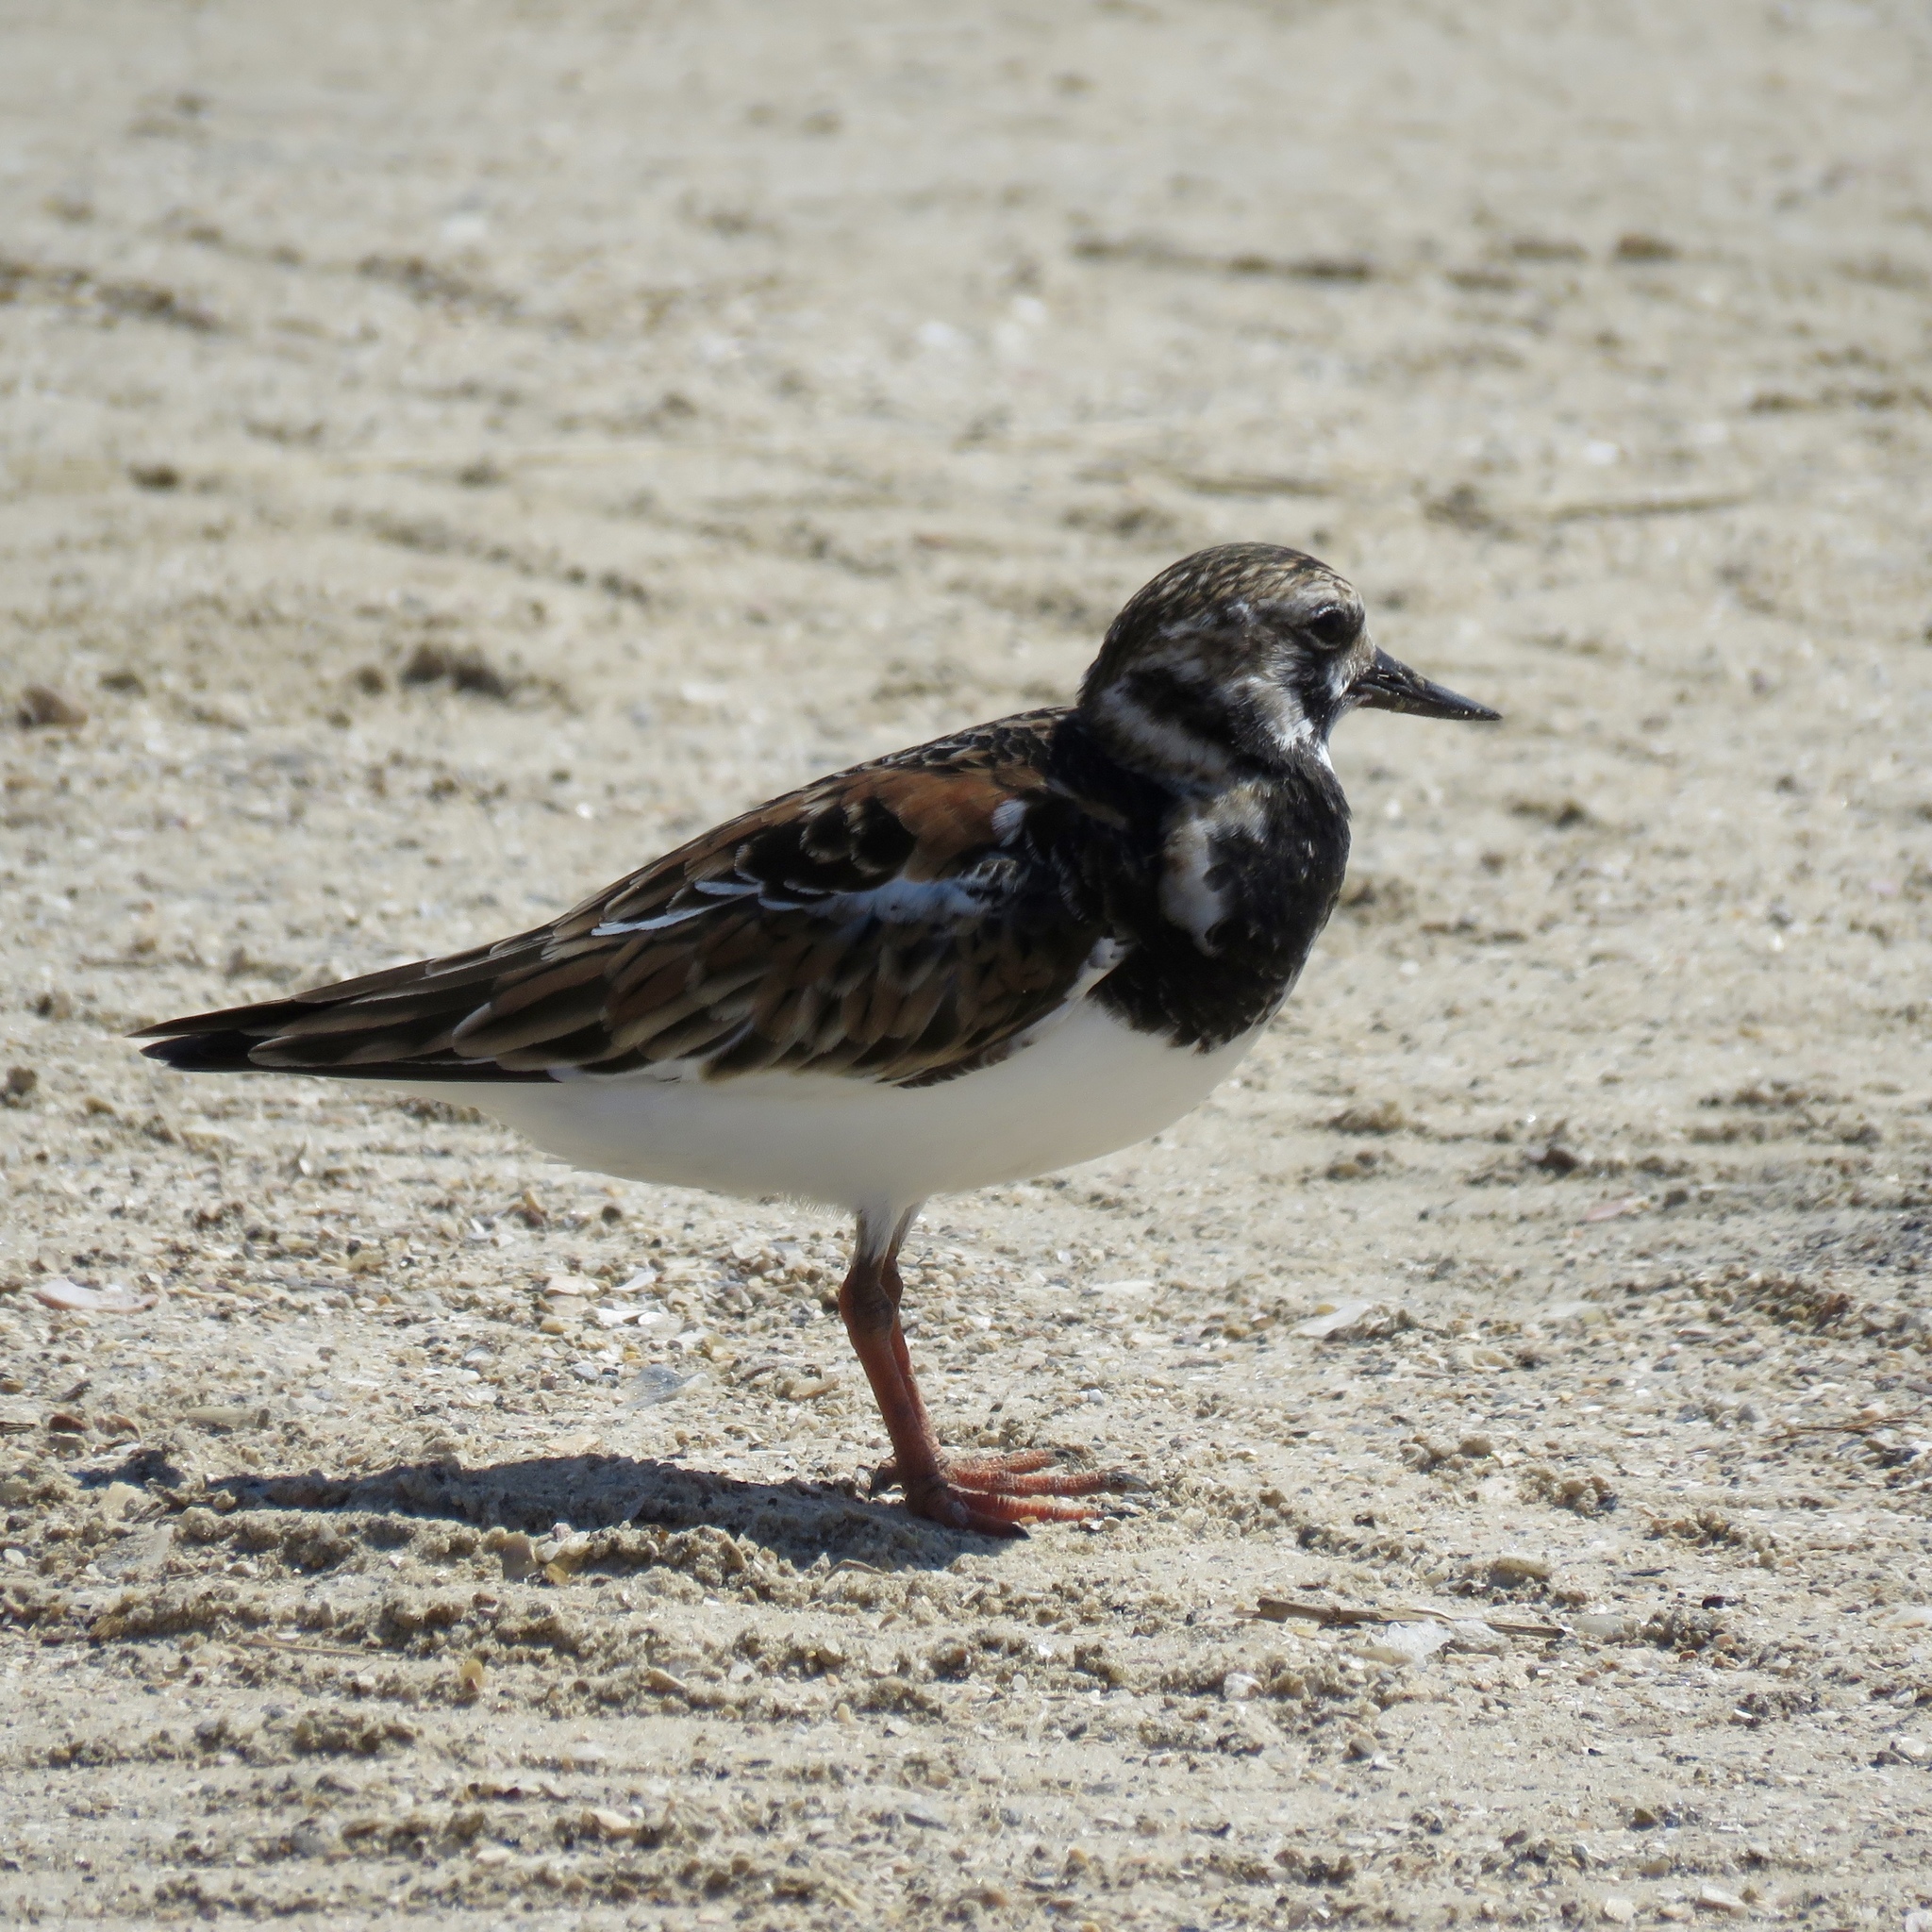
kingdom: Animalia
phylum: Chordata
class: Aves
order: Charadriiformes
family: Scolopacidae
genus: Arenaria
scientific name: Arenaria interpres
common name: Ruddy turnstone
